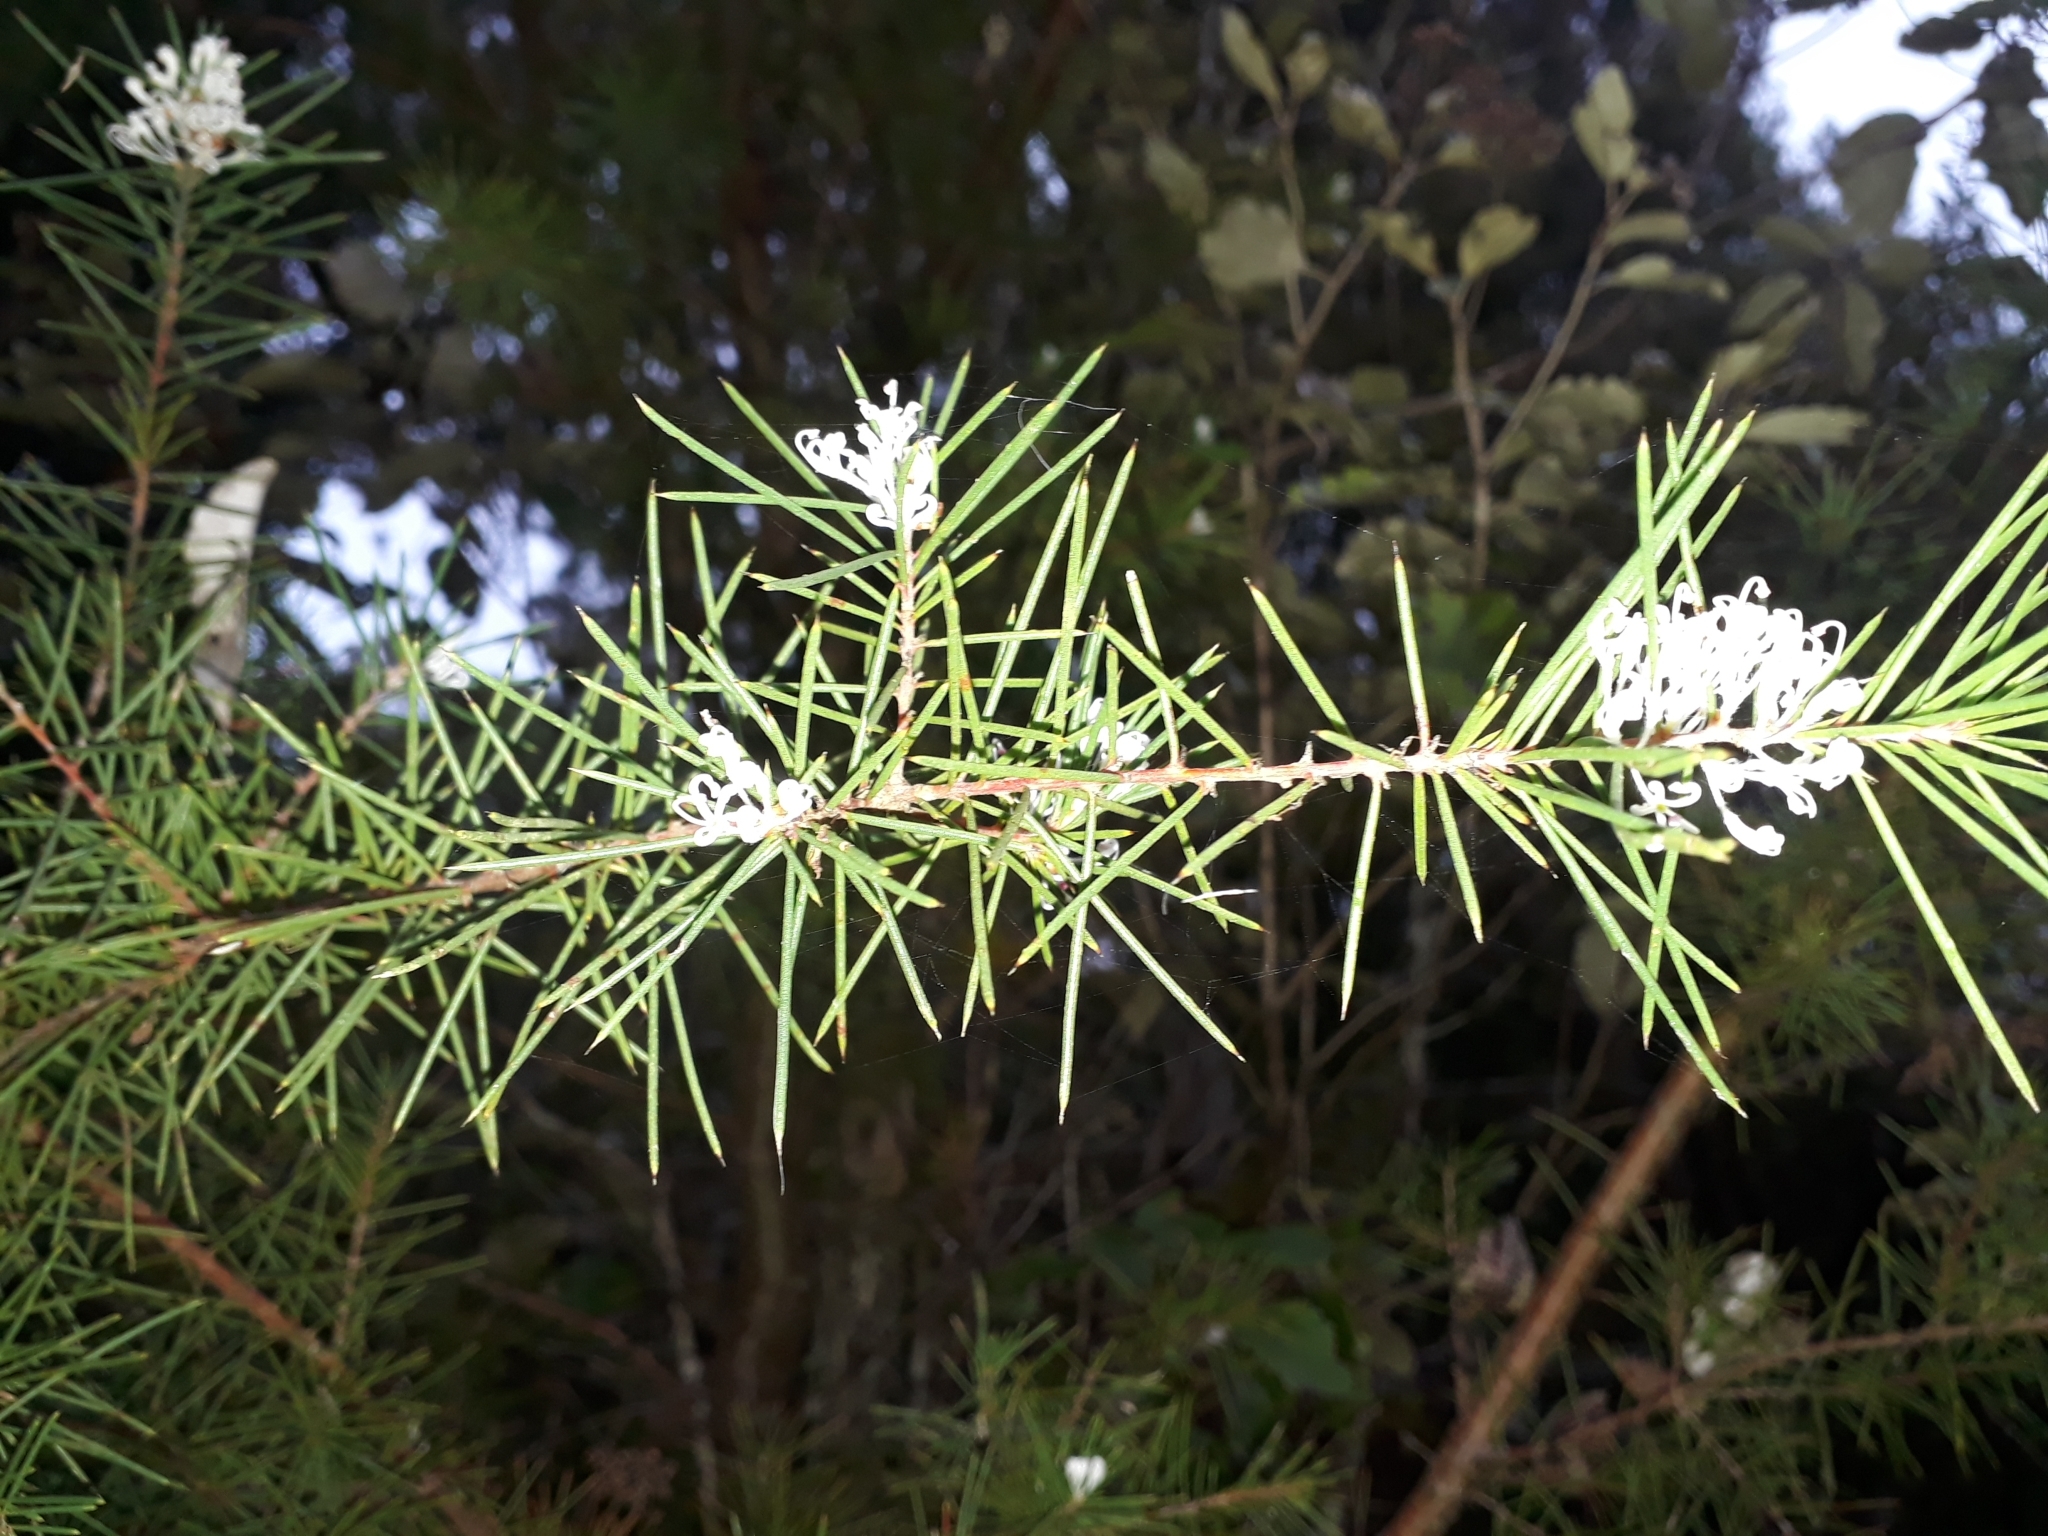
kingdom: Plantae
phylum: Tracheophyta
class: Magnoliopsida
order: Proteales
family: Proteaceae
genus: Hakea
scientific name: Hakea sericea
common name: Needle bush
